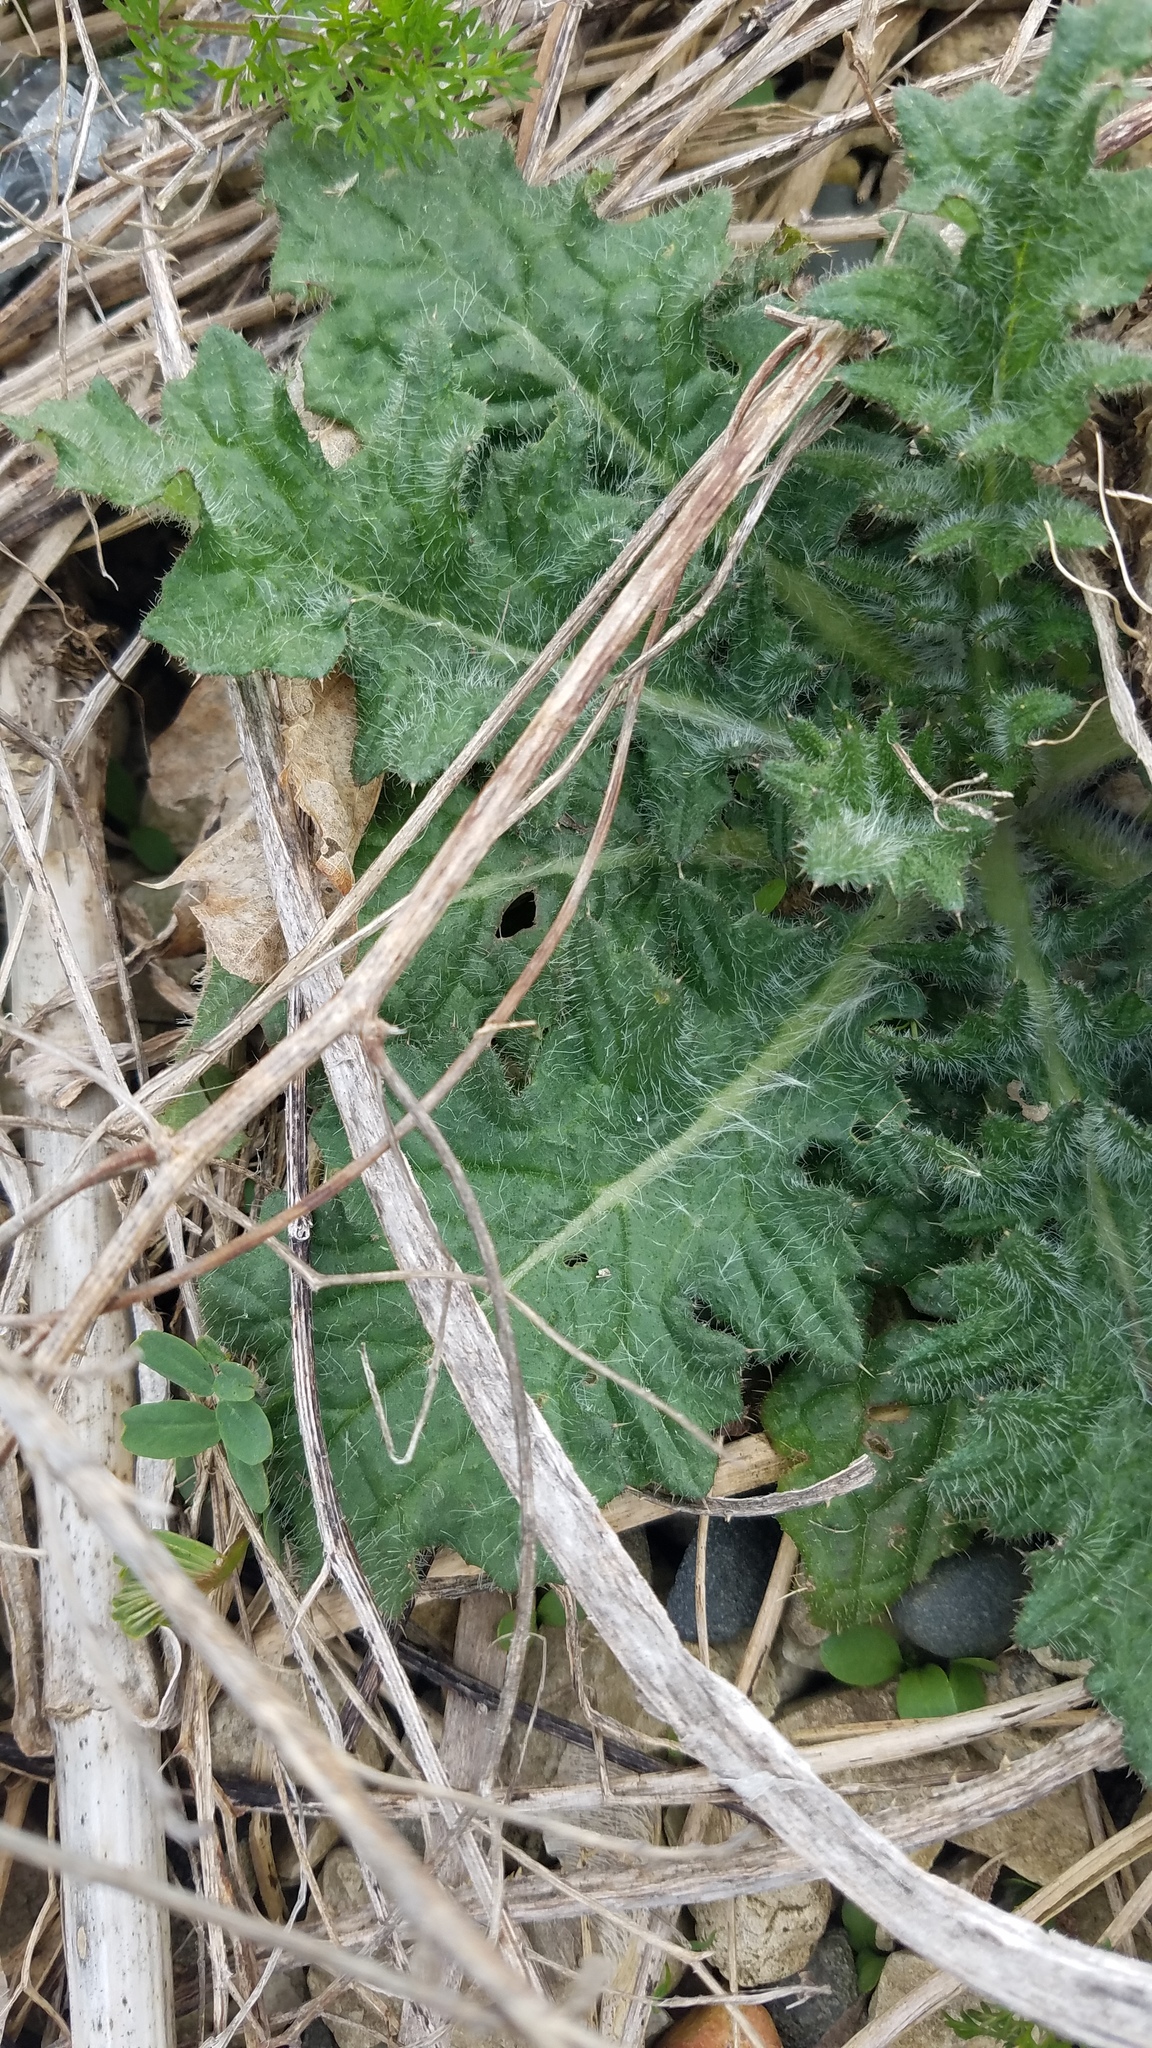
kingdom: Plantae
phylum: Tracheophyta
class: Magnoliopsida
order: Asterales
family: Asteraceae
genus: Cirsium
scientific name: Cirsium vulgare
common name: Bull thistle
